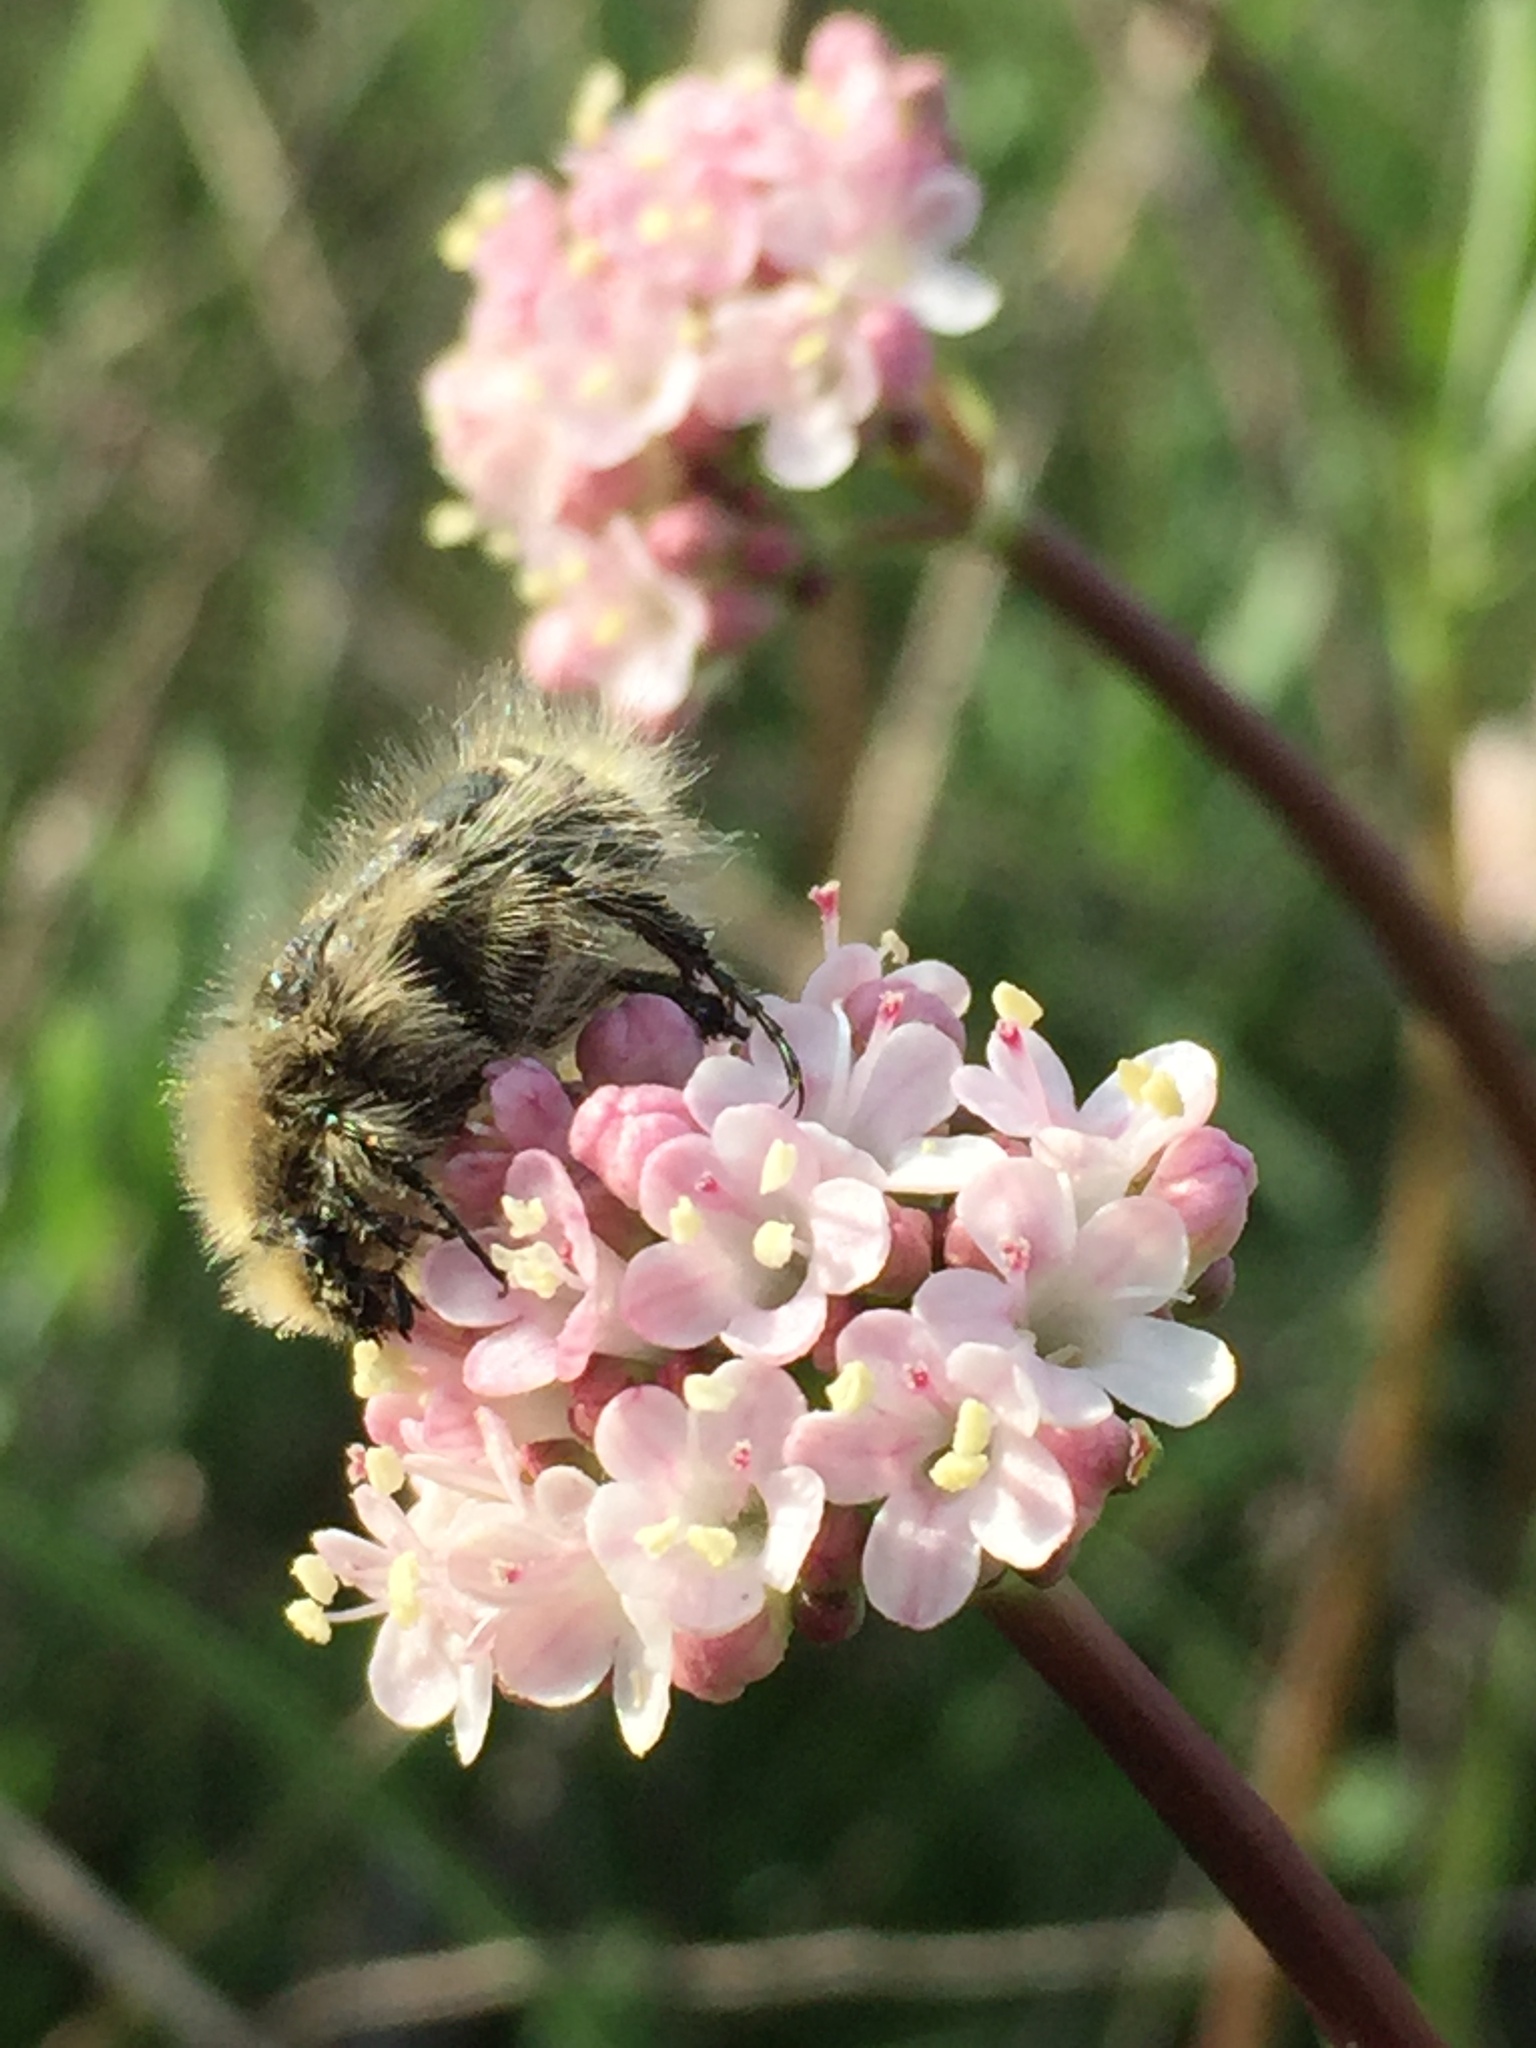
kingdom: Animalia
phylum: Arthropoda
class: Insecta
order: Coleoptera
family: Scarabaeidae
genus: Tropinota
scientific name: Tropinota hirta
